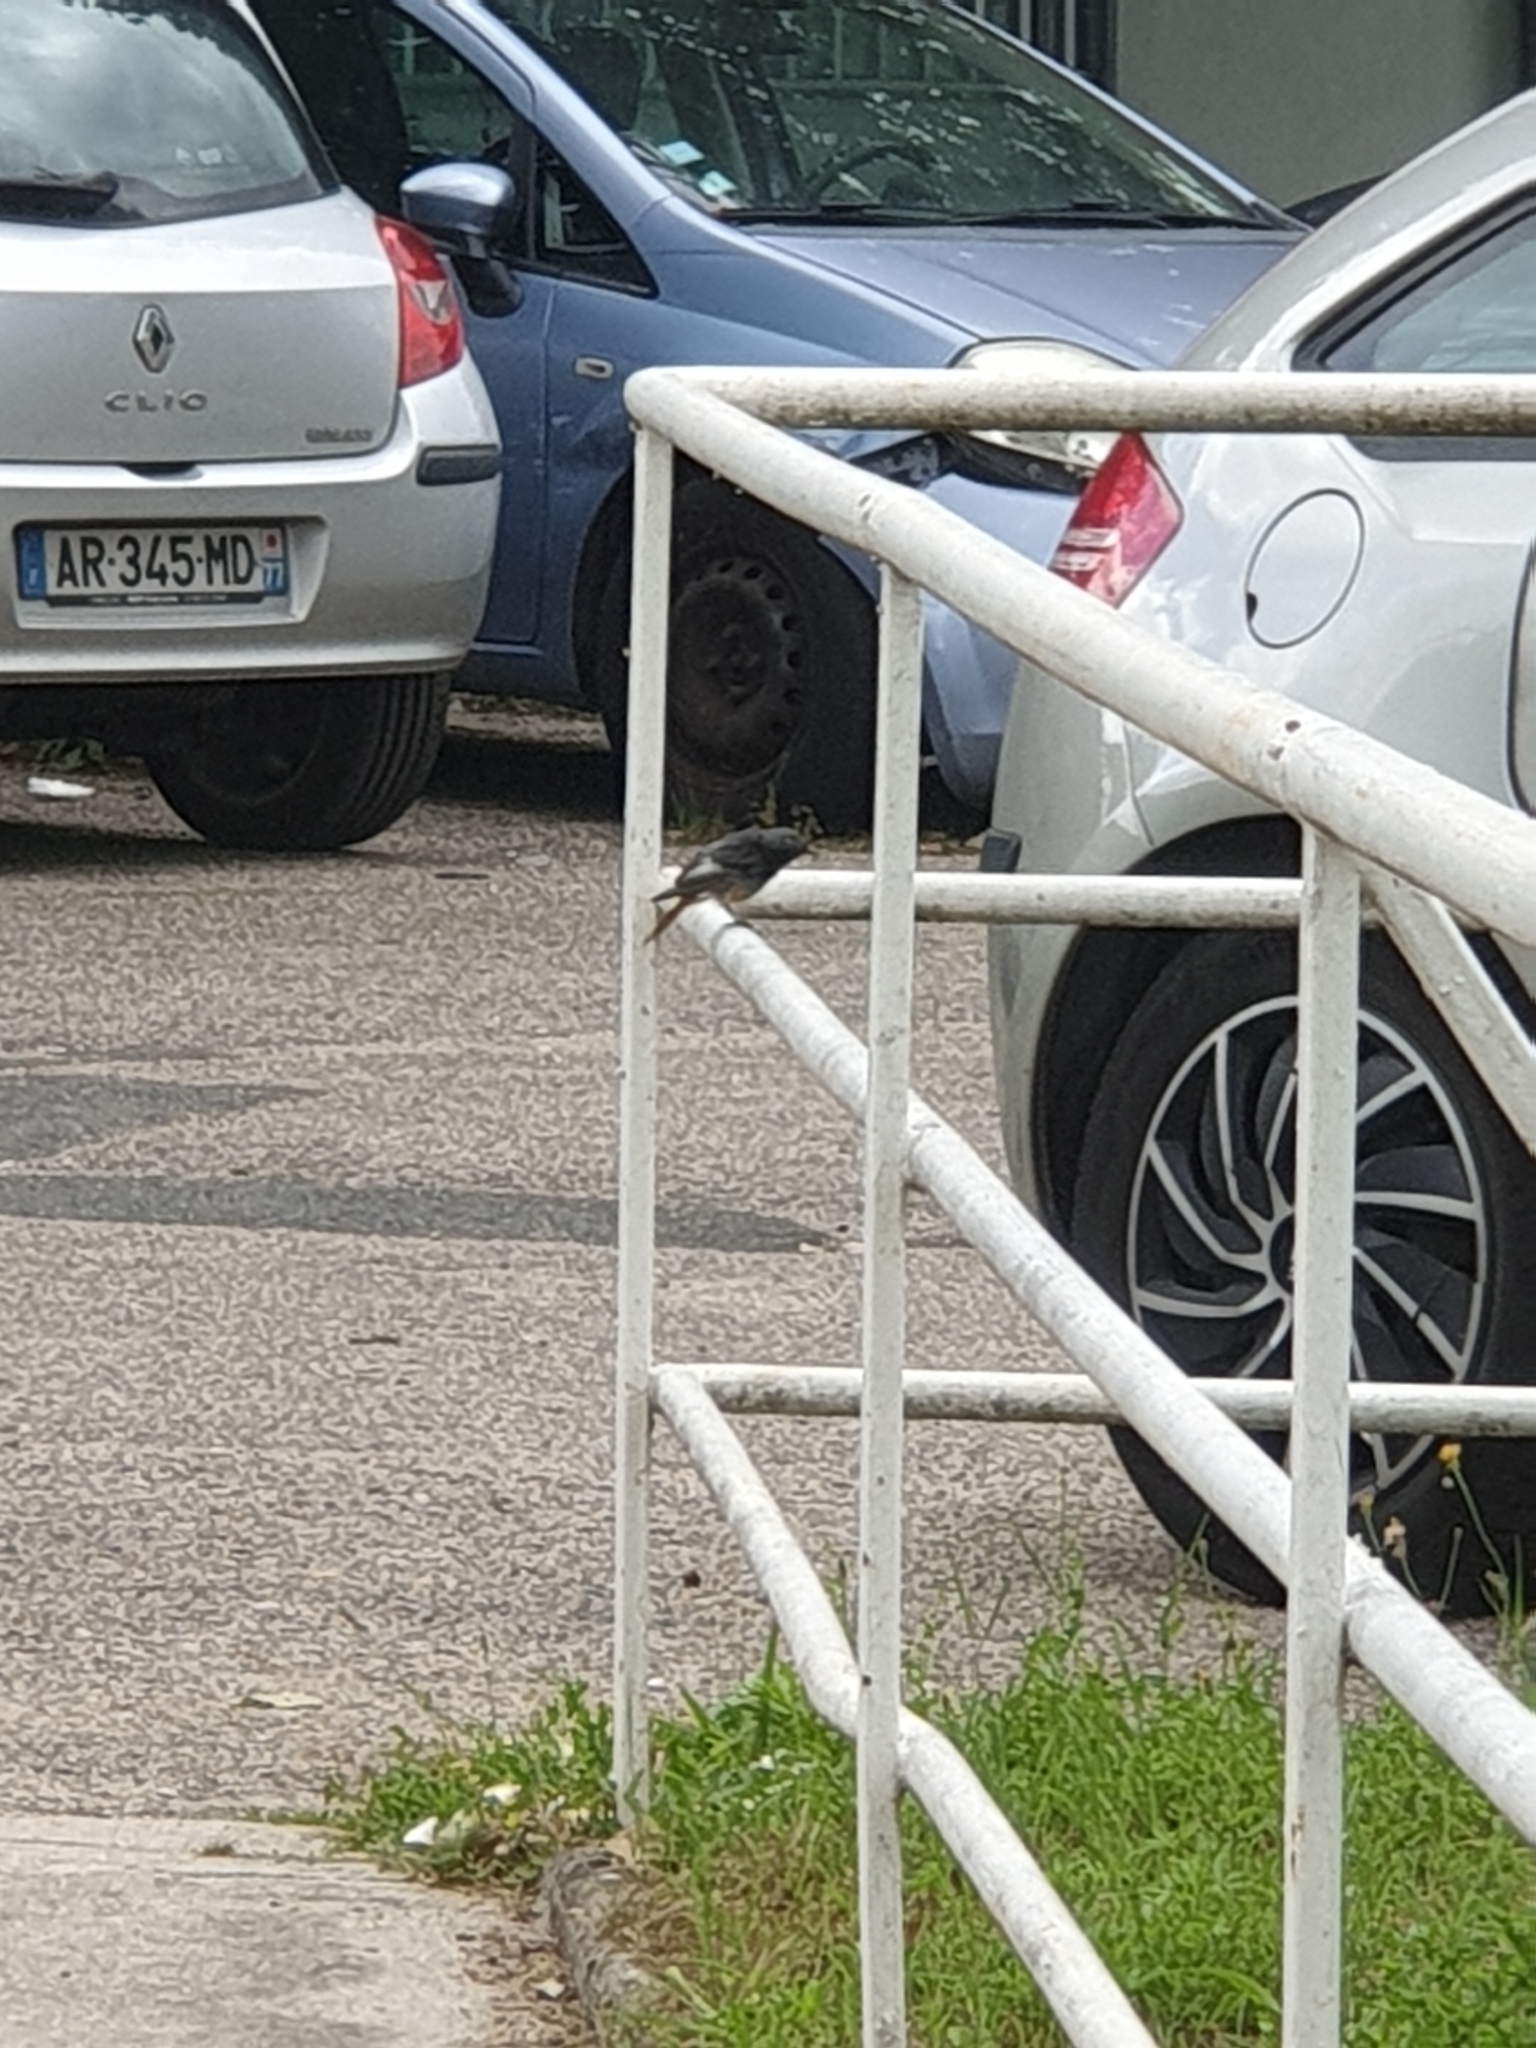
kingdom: Animalia
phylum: Chordata
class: Aves
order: Passeriformes
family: Muscicapidae
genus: Phoenicurus
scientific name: Phoenicurus ochruros
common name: Black redstart
